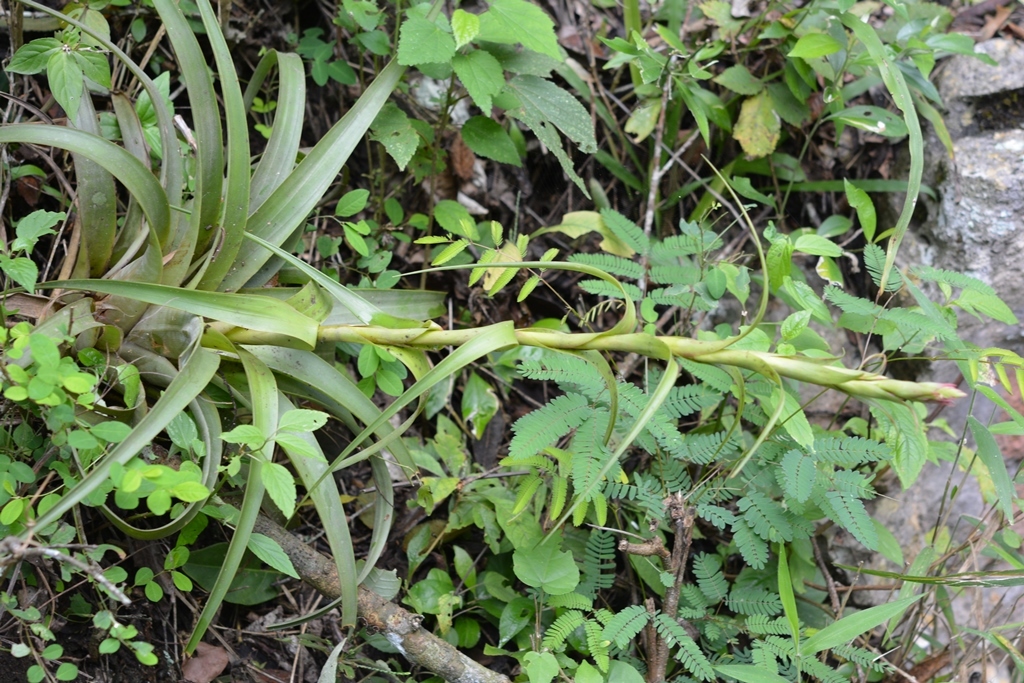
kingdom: Plantae
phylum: Tracheophyta
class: Liliopsida
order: Poales
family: Bromeliaceae
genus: Tillandsia
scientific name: Tillandsia belloensis
